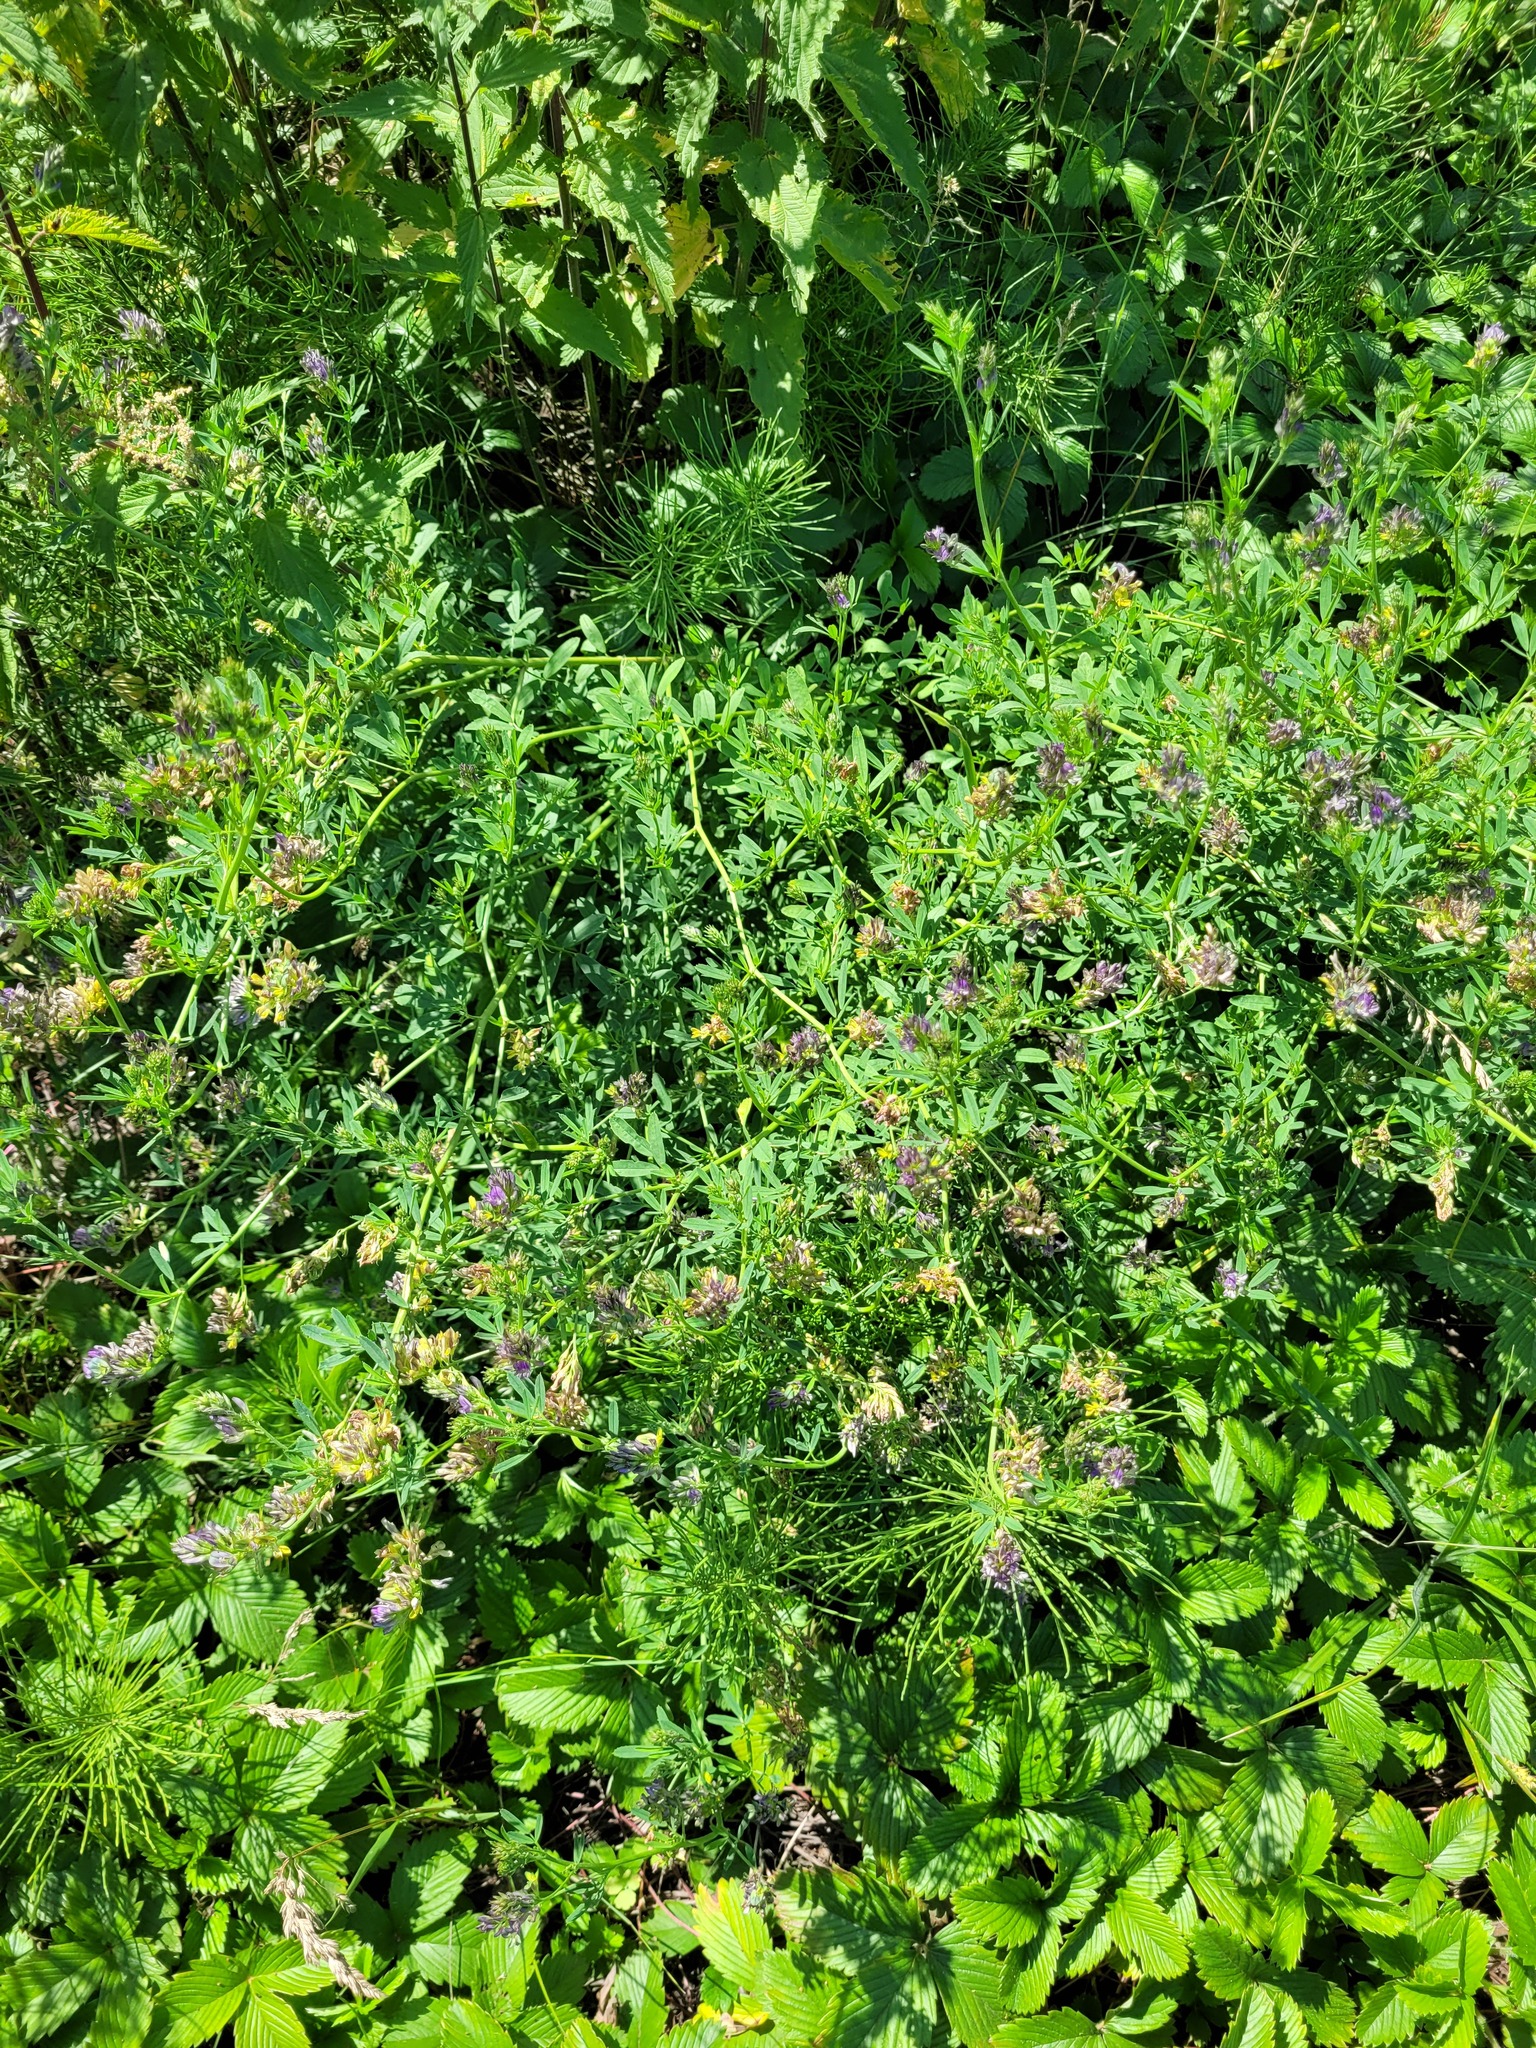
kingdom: Plantae
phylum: Tracheophyta
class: Magnoliopsida
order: Fabales
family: Fabaceae
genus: Medicago
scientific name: Medicago varia
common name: Sand lucerne
